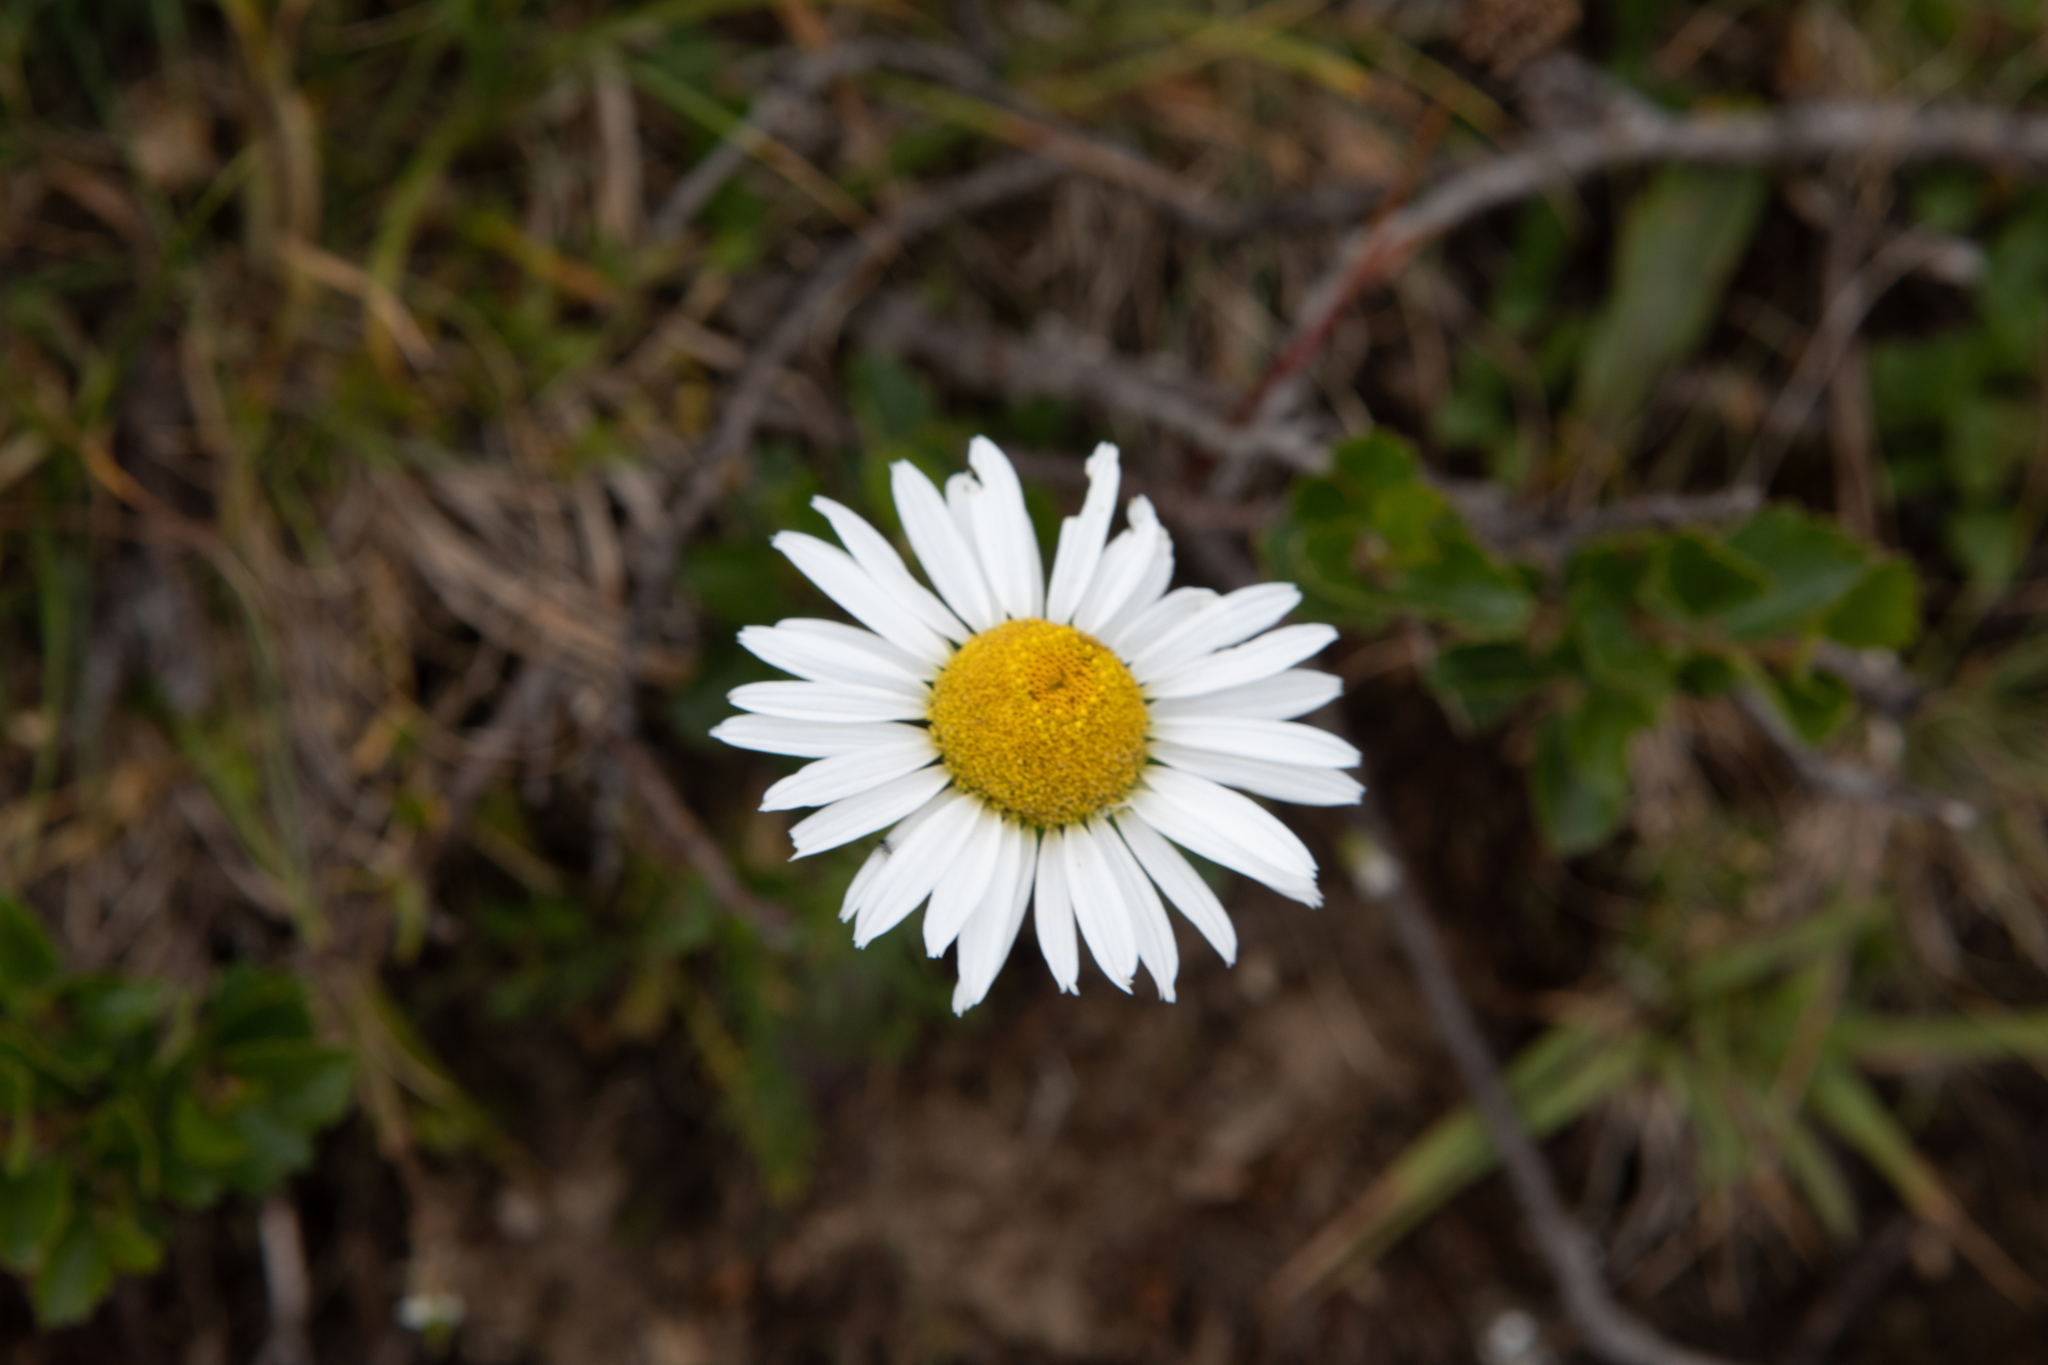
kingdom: Plantae
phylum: Tracheophyta
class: Magnoliopsida
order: Asterales
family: Asteraceae
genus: Leucanthemum
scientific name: Leucanthemum vulgare
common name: Oxeye daisy
